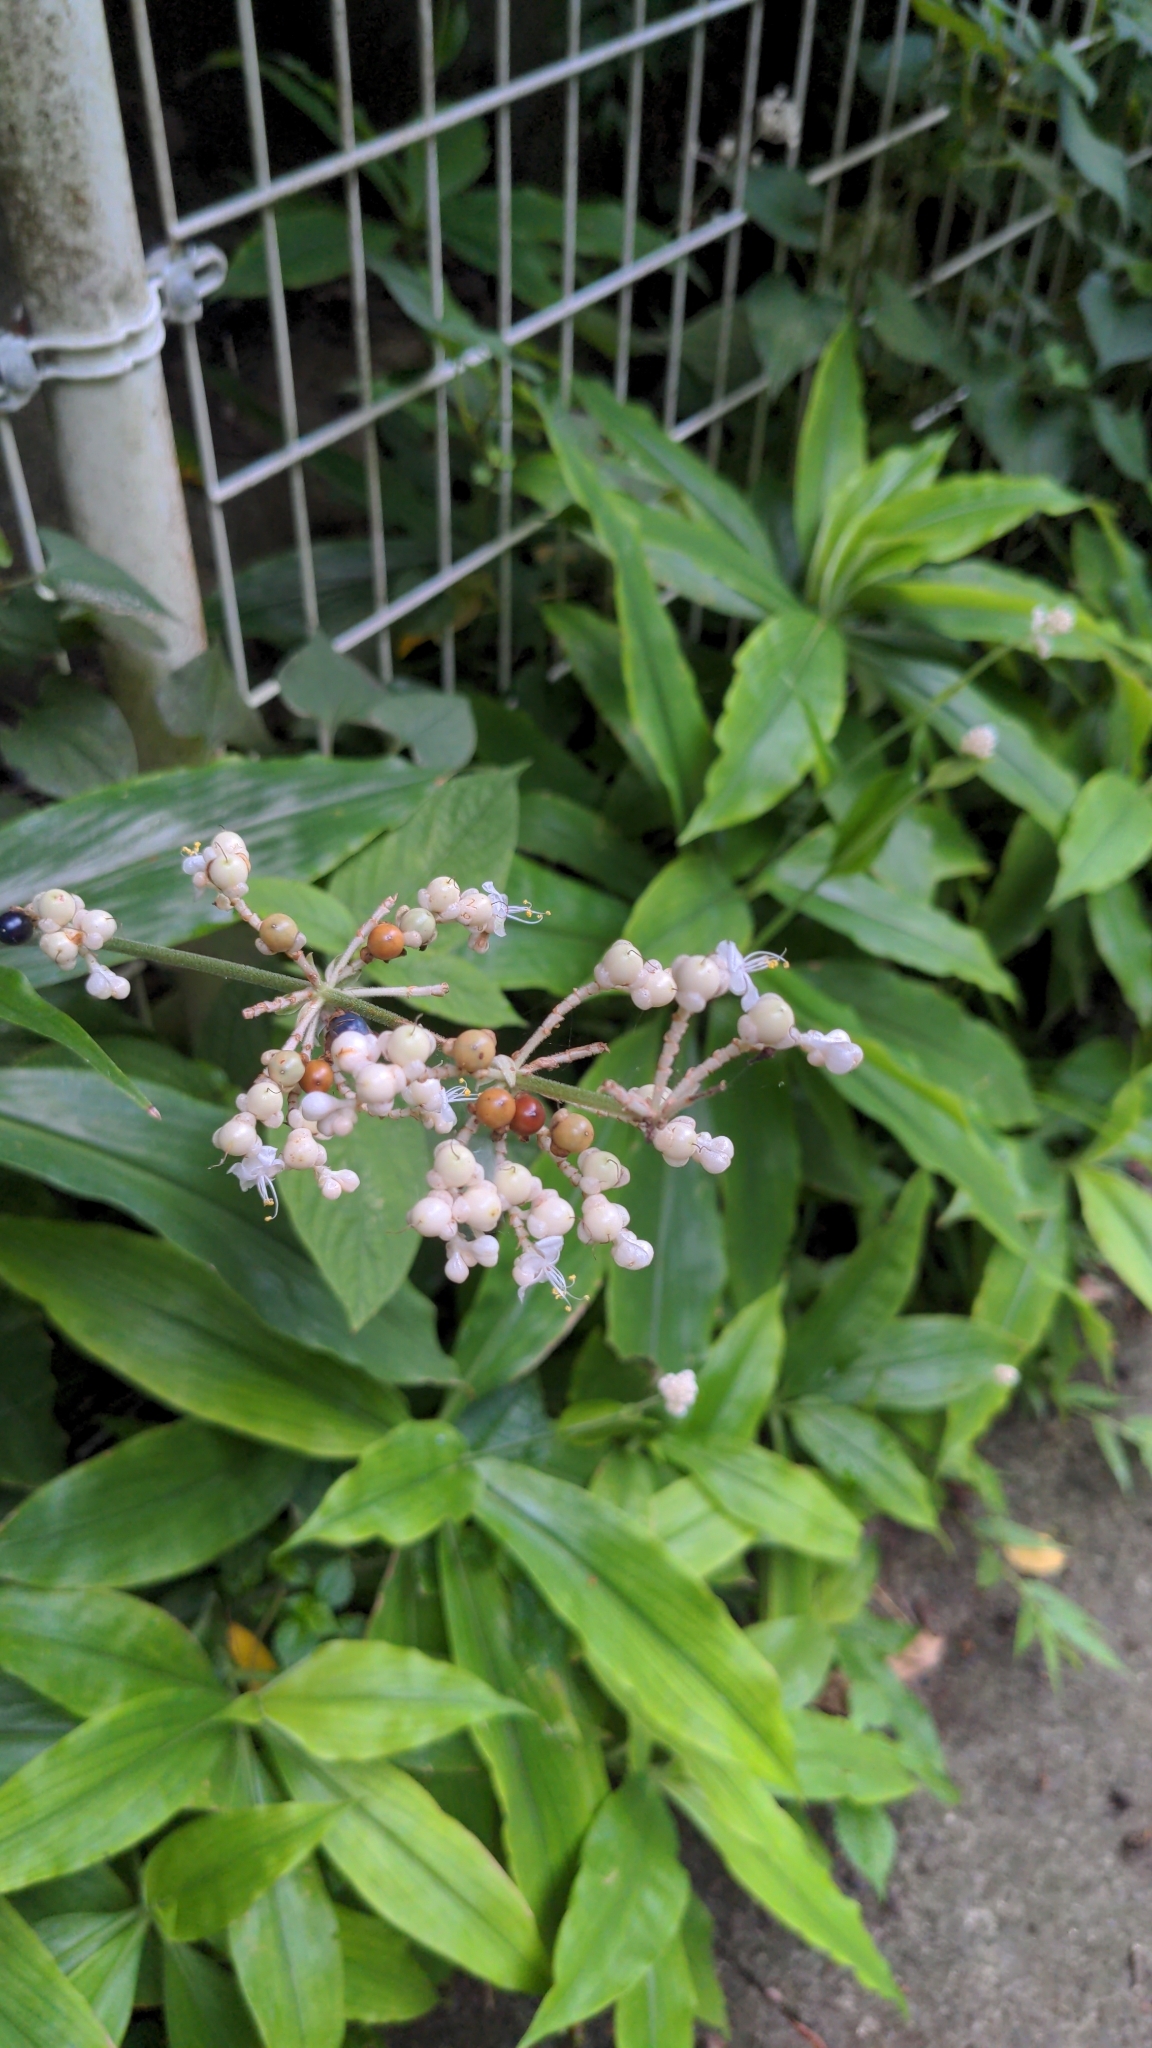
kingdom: Plantae
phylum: Tracheophyta
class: Liliopsida
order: Commelinales
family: Commelinaceae
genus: Pollia
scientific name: Pollia japonica
